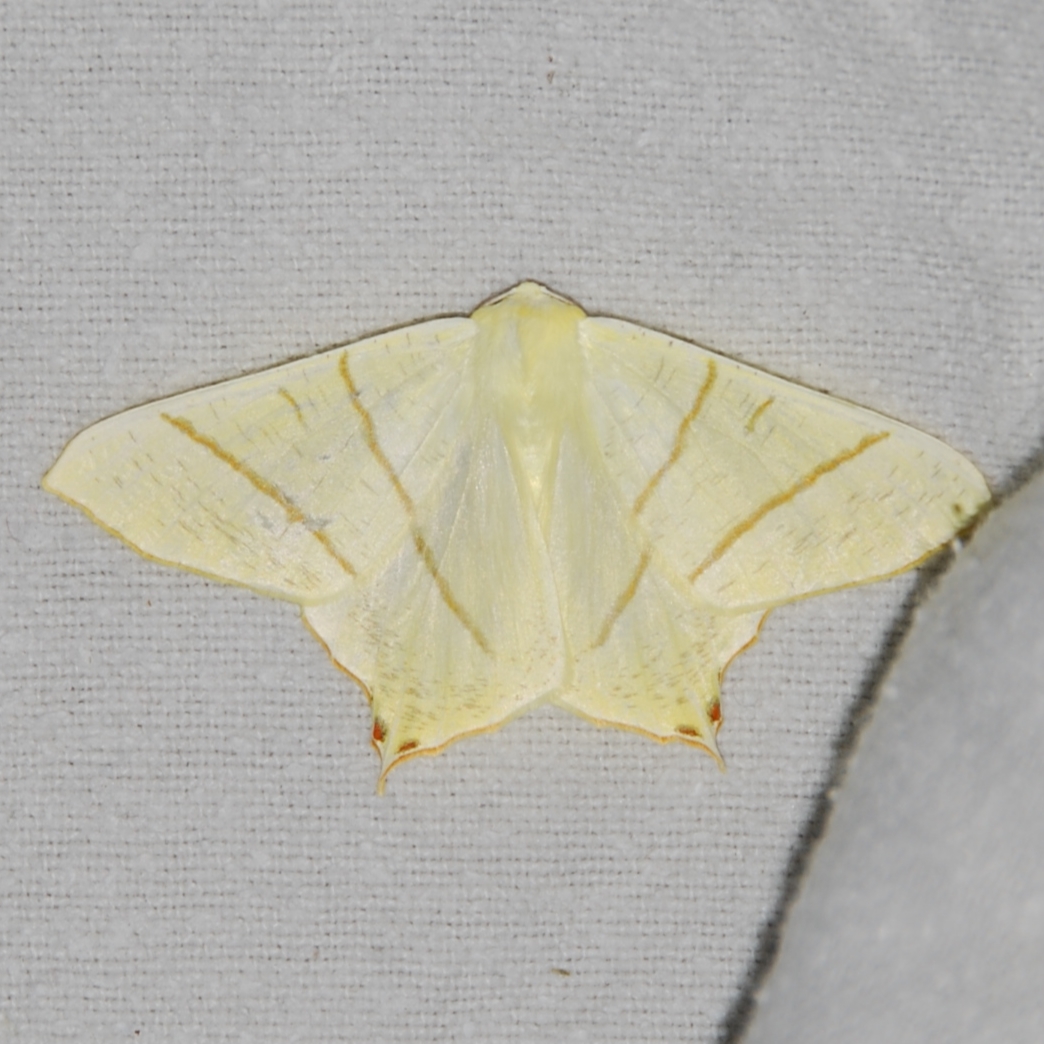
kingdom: Animalia
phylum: Arthropoda
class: Insecta
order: Lepidoptera
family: Geometridae
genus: Ourapteryx
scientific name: Ourapteryx sambucaria
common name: Swallow-tailed moth
